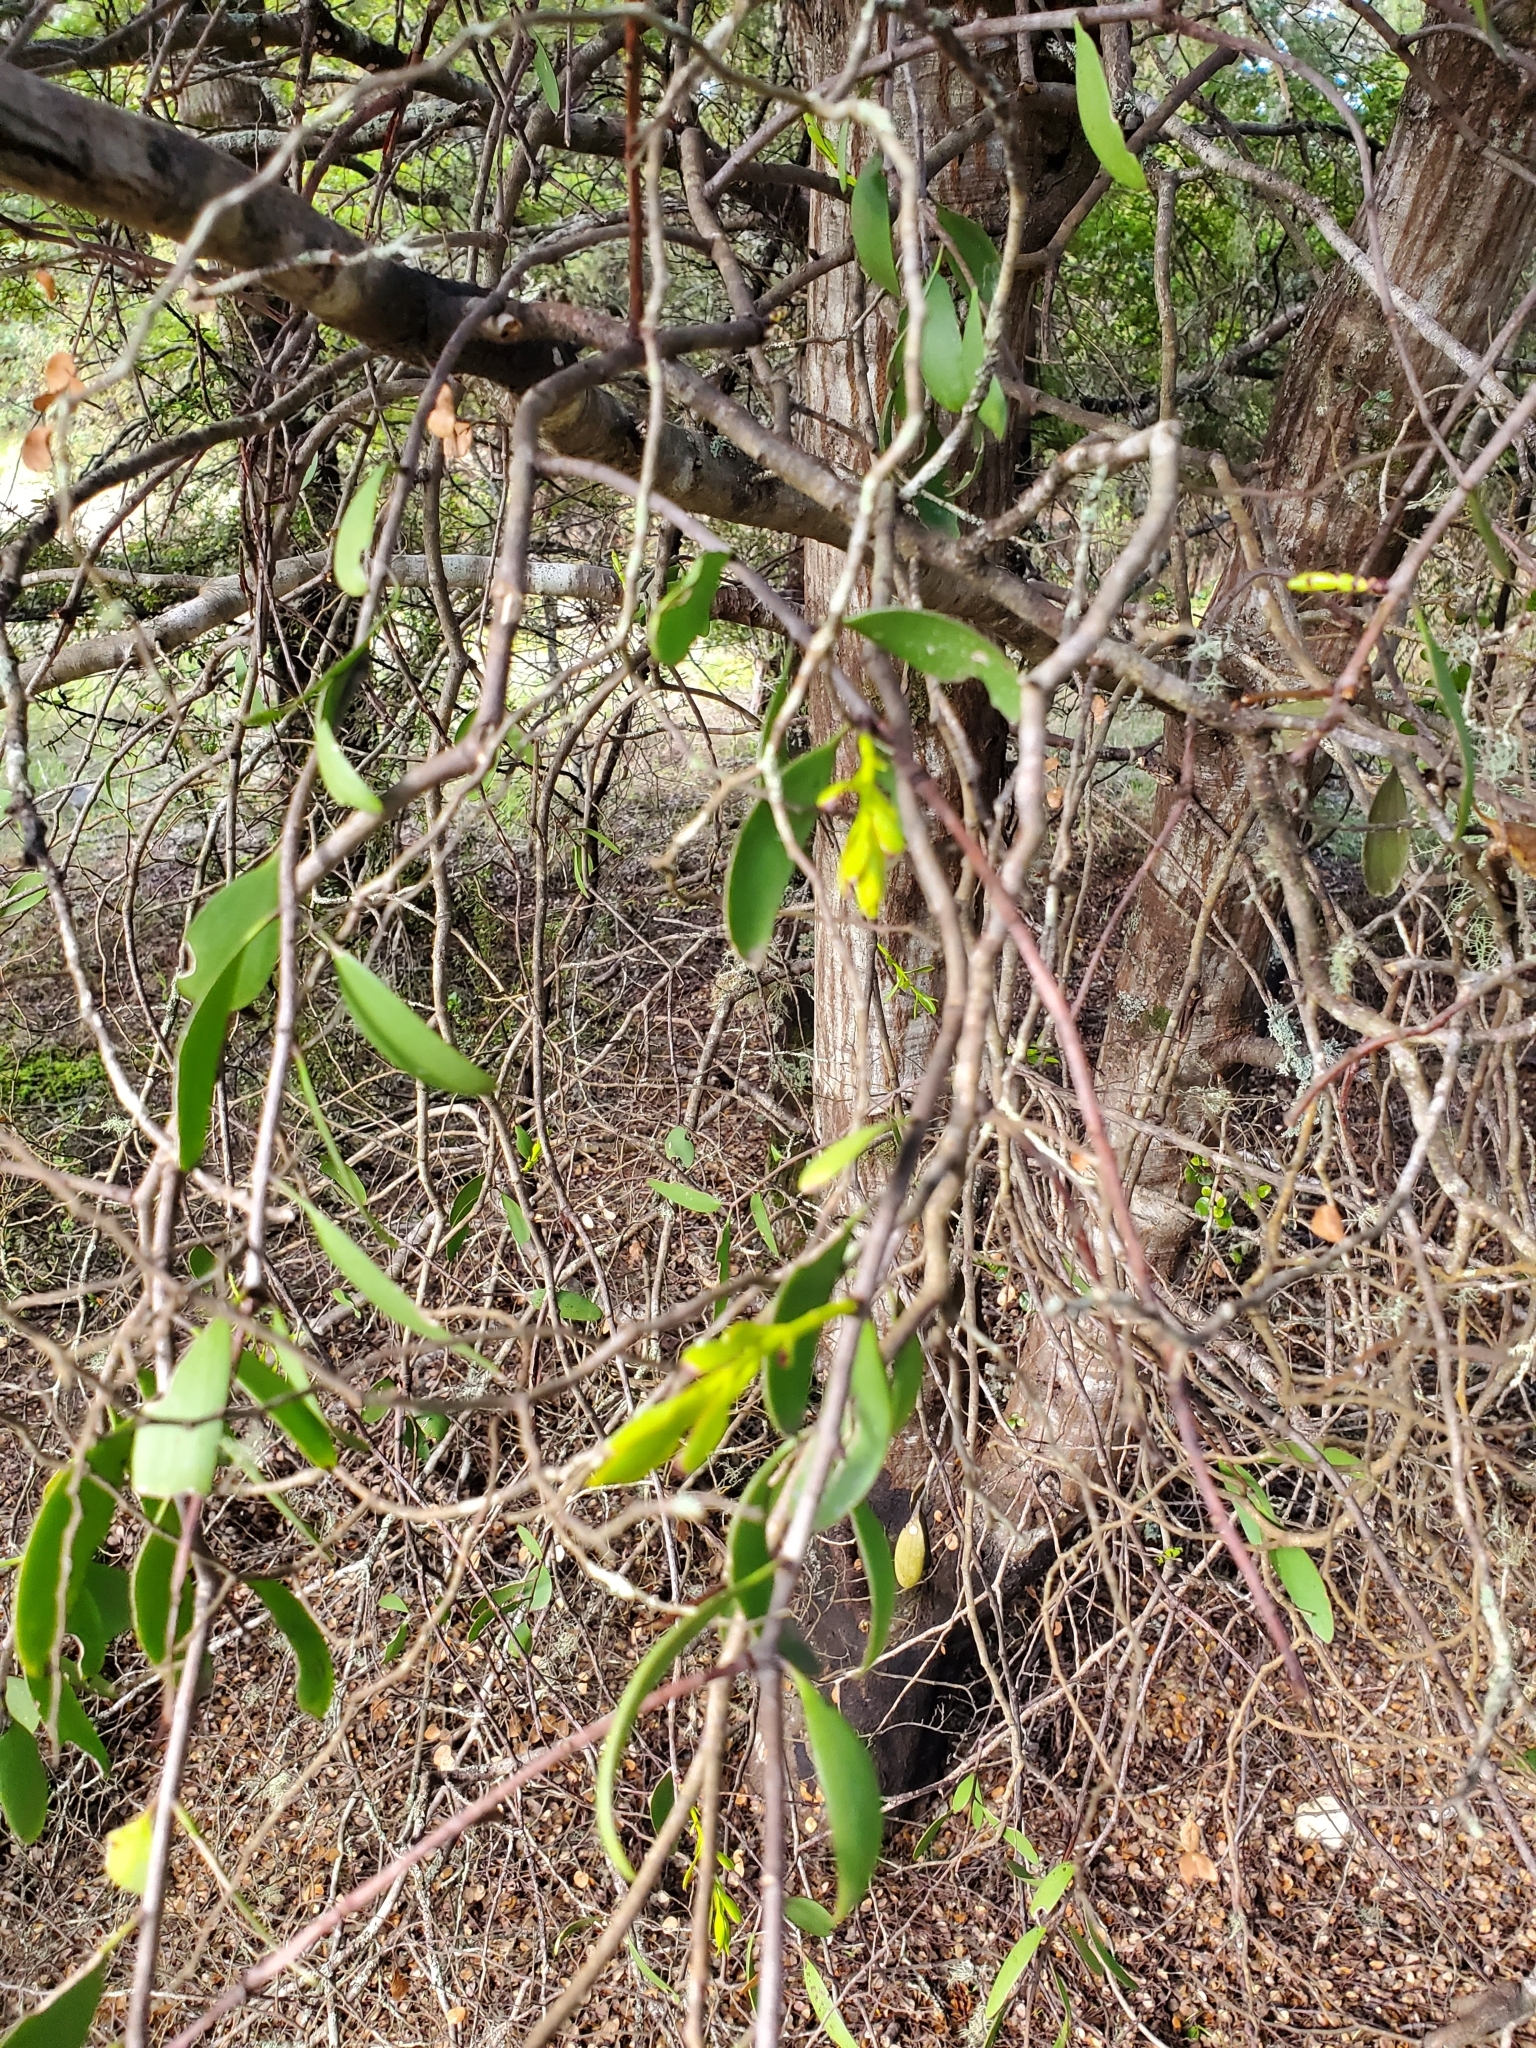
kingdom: Plantae
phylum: Tracheophyta
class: Magnoliopsida
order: Santalales
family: Loranthaceae
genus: Alepis
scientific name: Alepis flavida
